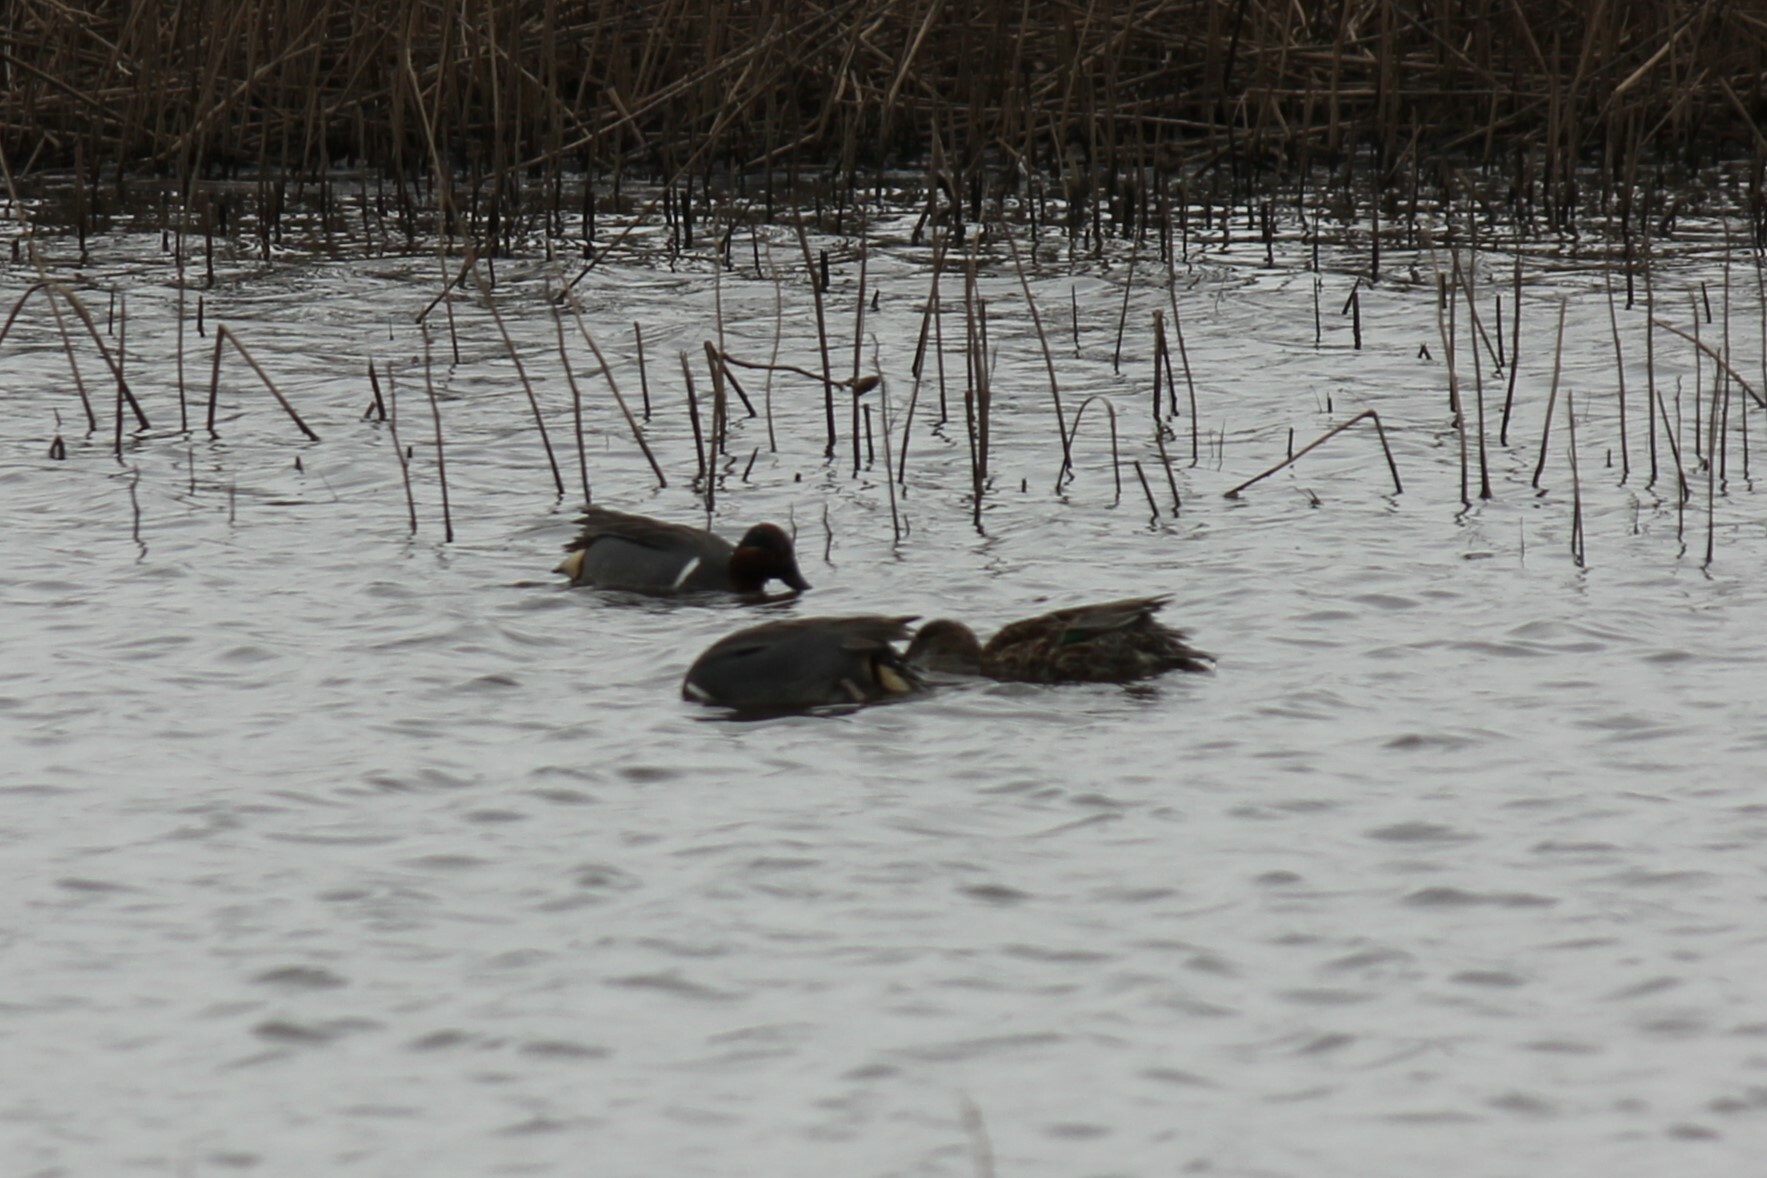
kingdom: Animalia
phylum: Chordata
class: Aves
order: Anseriformes
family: Anatidae
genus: Anas
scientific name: Anas crecca
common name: Eurasian teal
